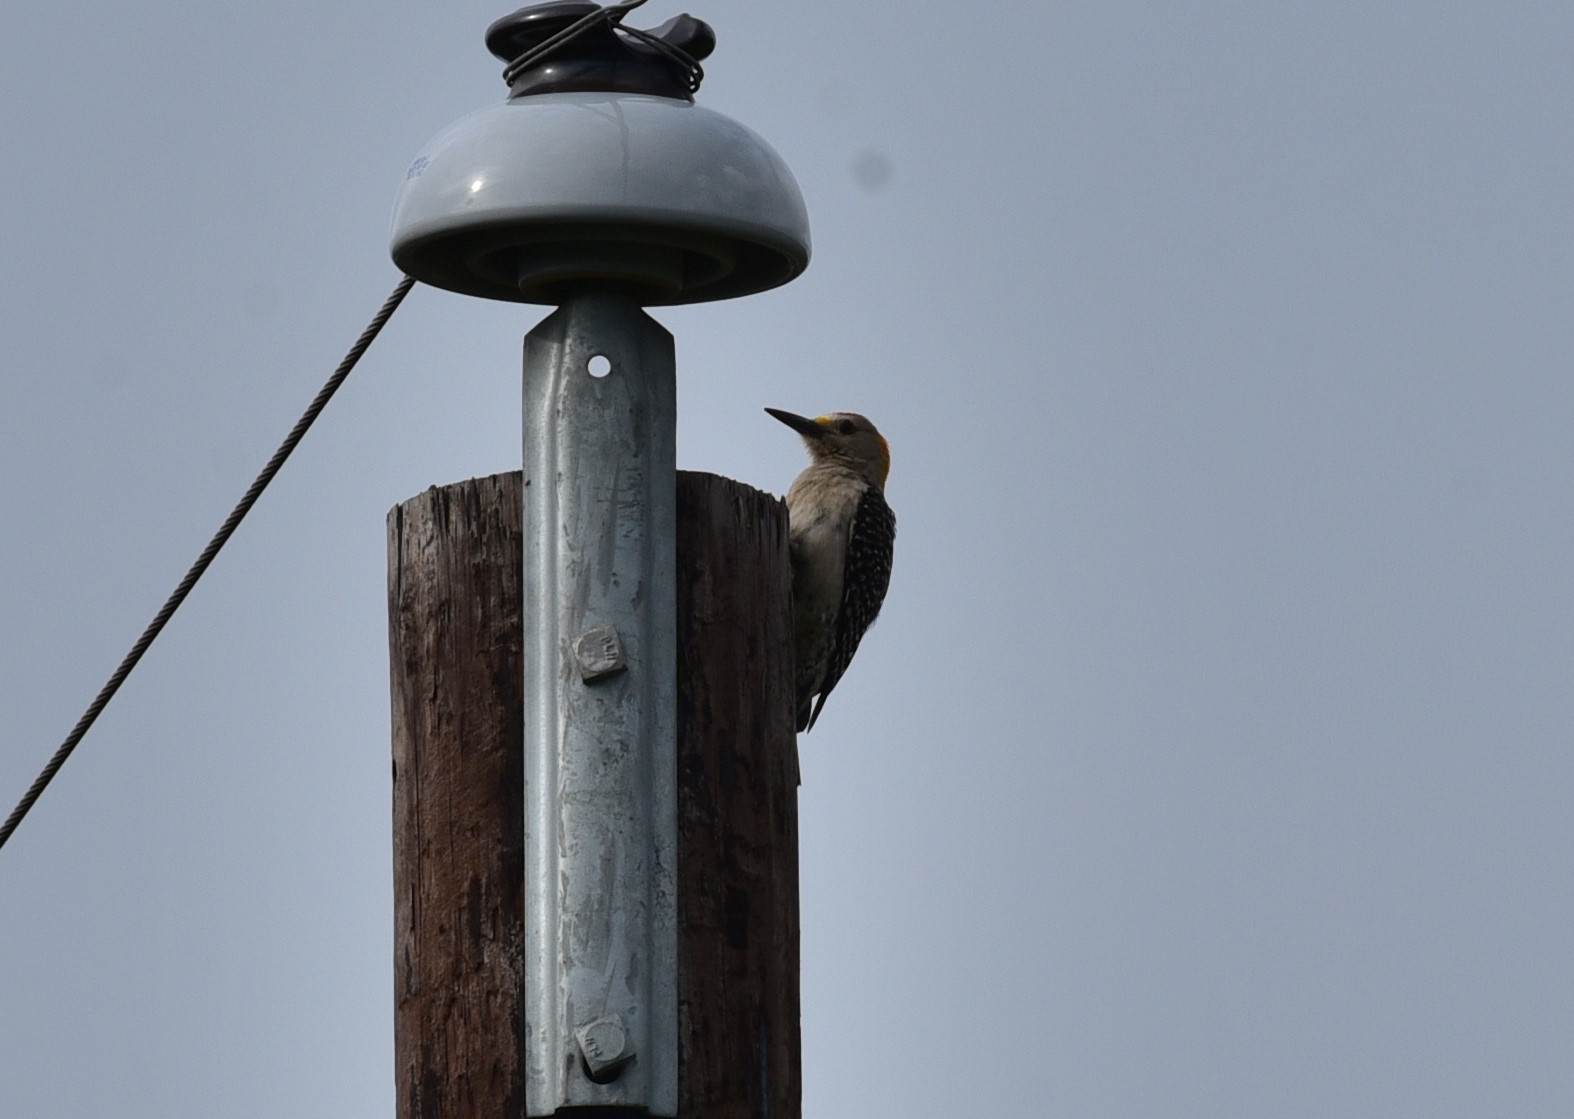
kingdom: Animalia
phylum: Chordata
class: Aves
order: Piciformes
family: Picidae
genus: Melanerpes
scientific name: Melanerpes aurifrons
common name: Golden-fronted woodpecker
